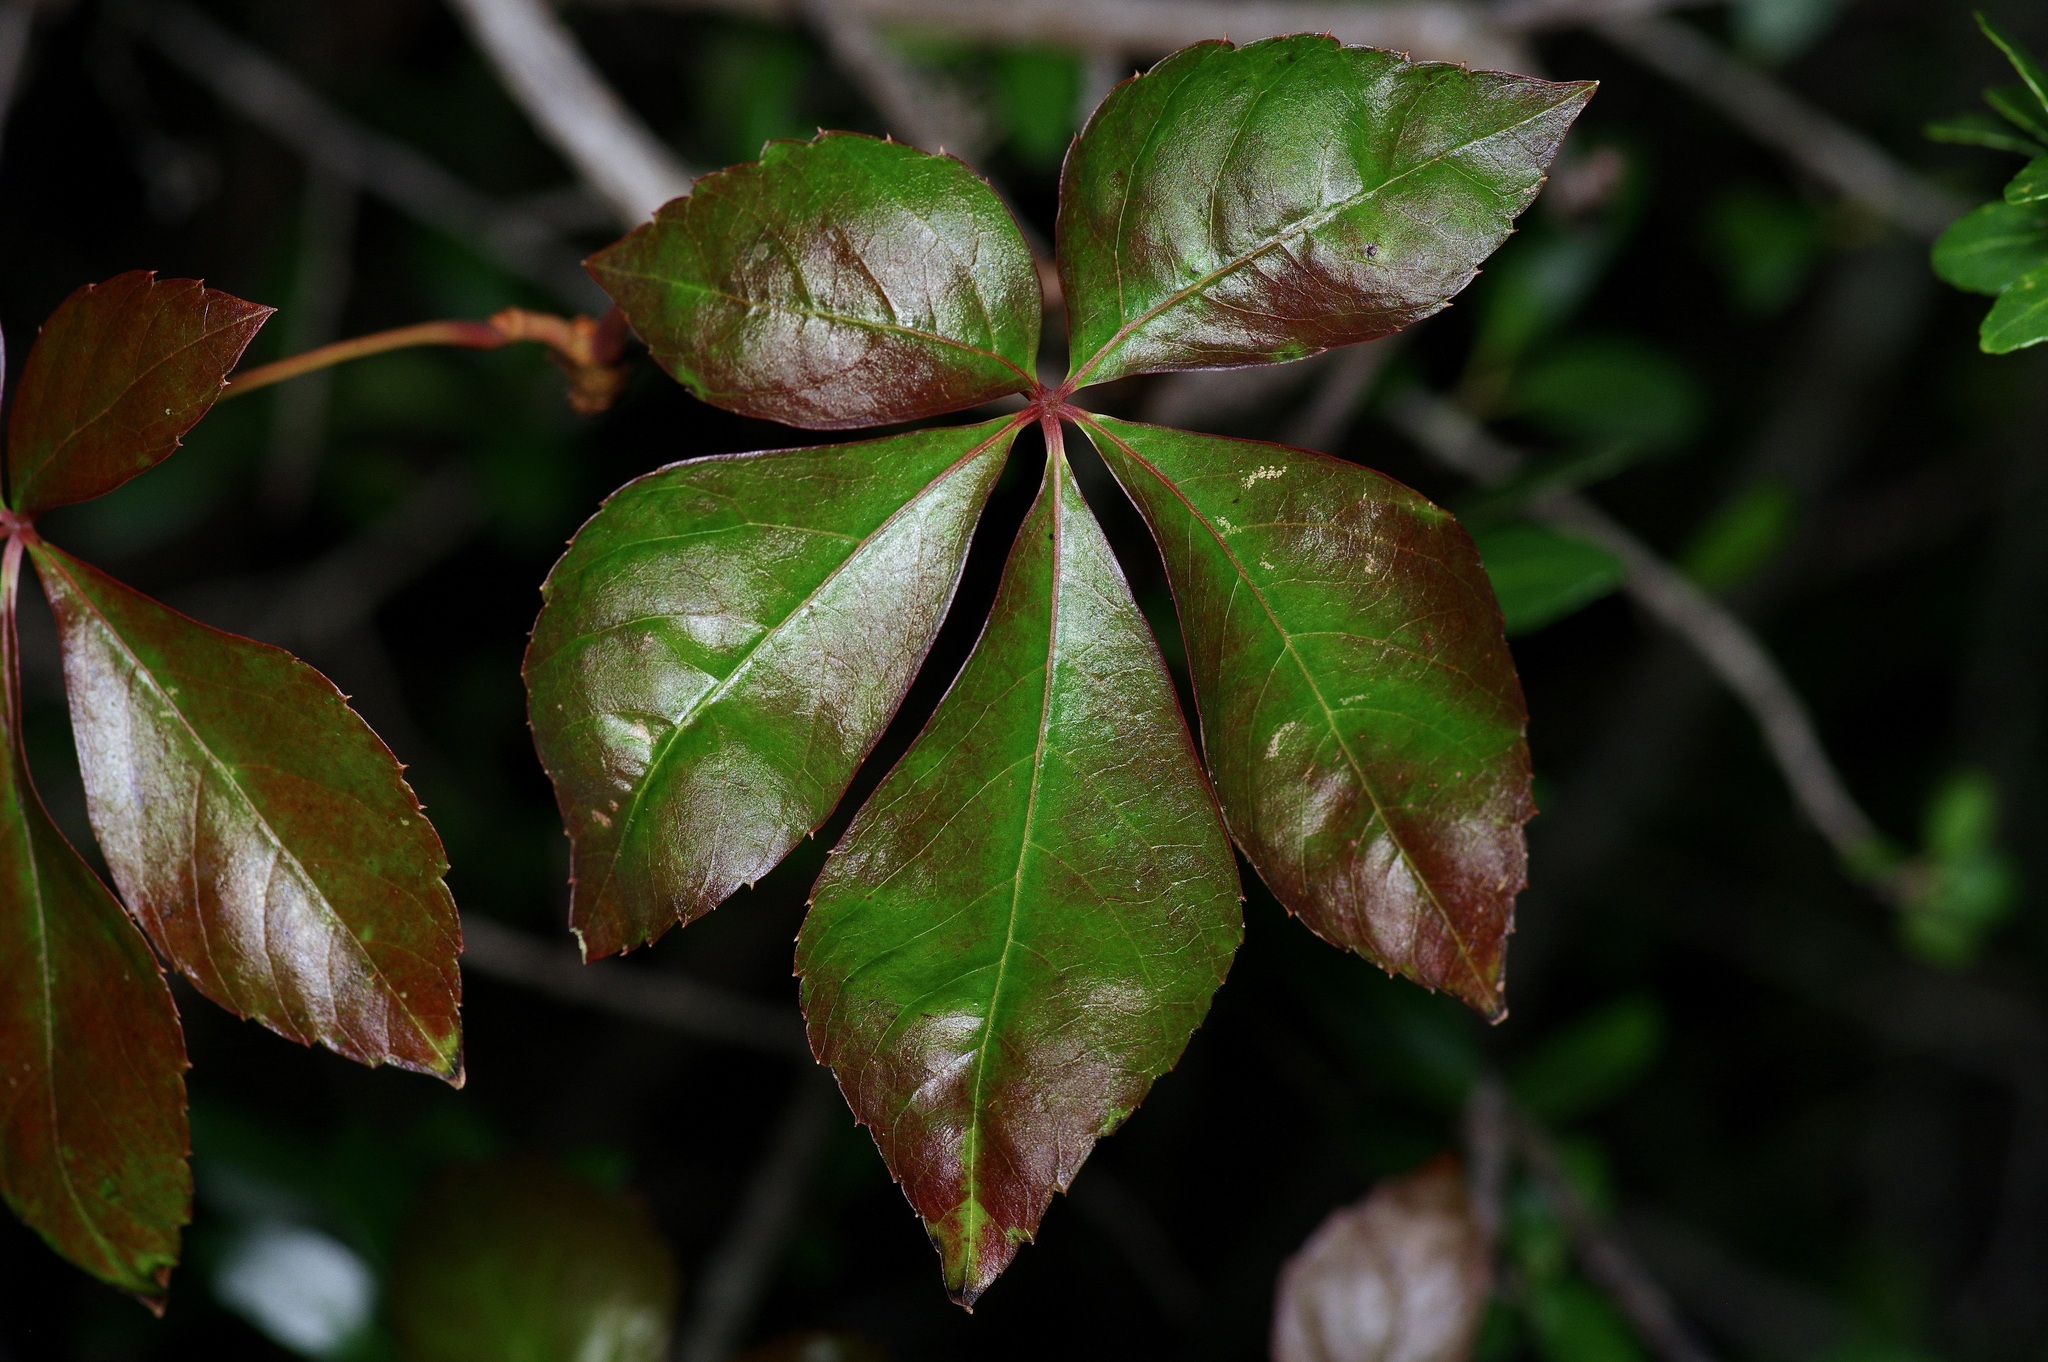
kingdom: Plantae
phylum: Tracheophyta
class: Magnoliopsida
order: Vitales
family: Vitaceae
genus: Parthenocissus
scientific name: Parthenocissus quinquefolia
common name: Virginia-creeper
